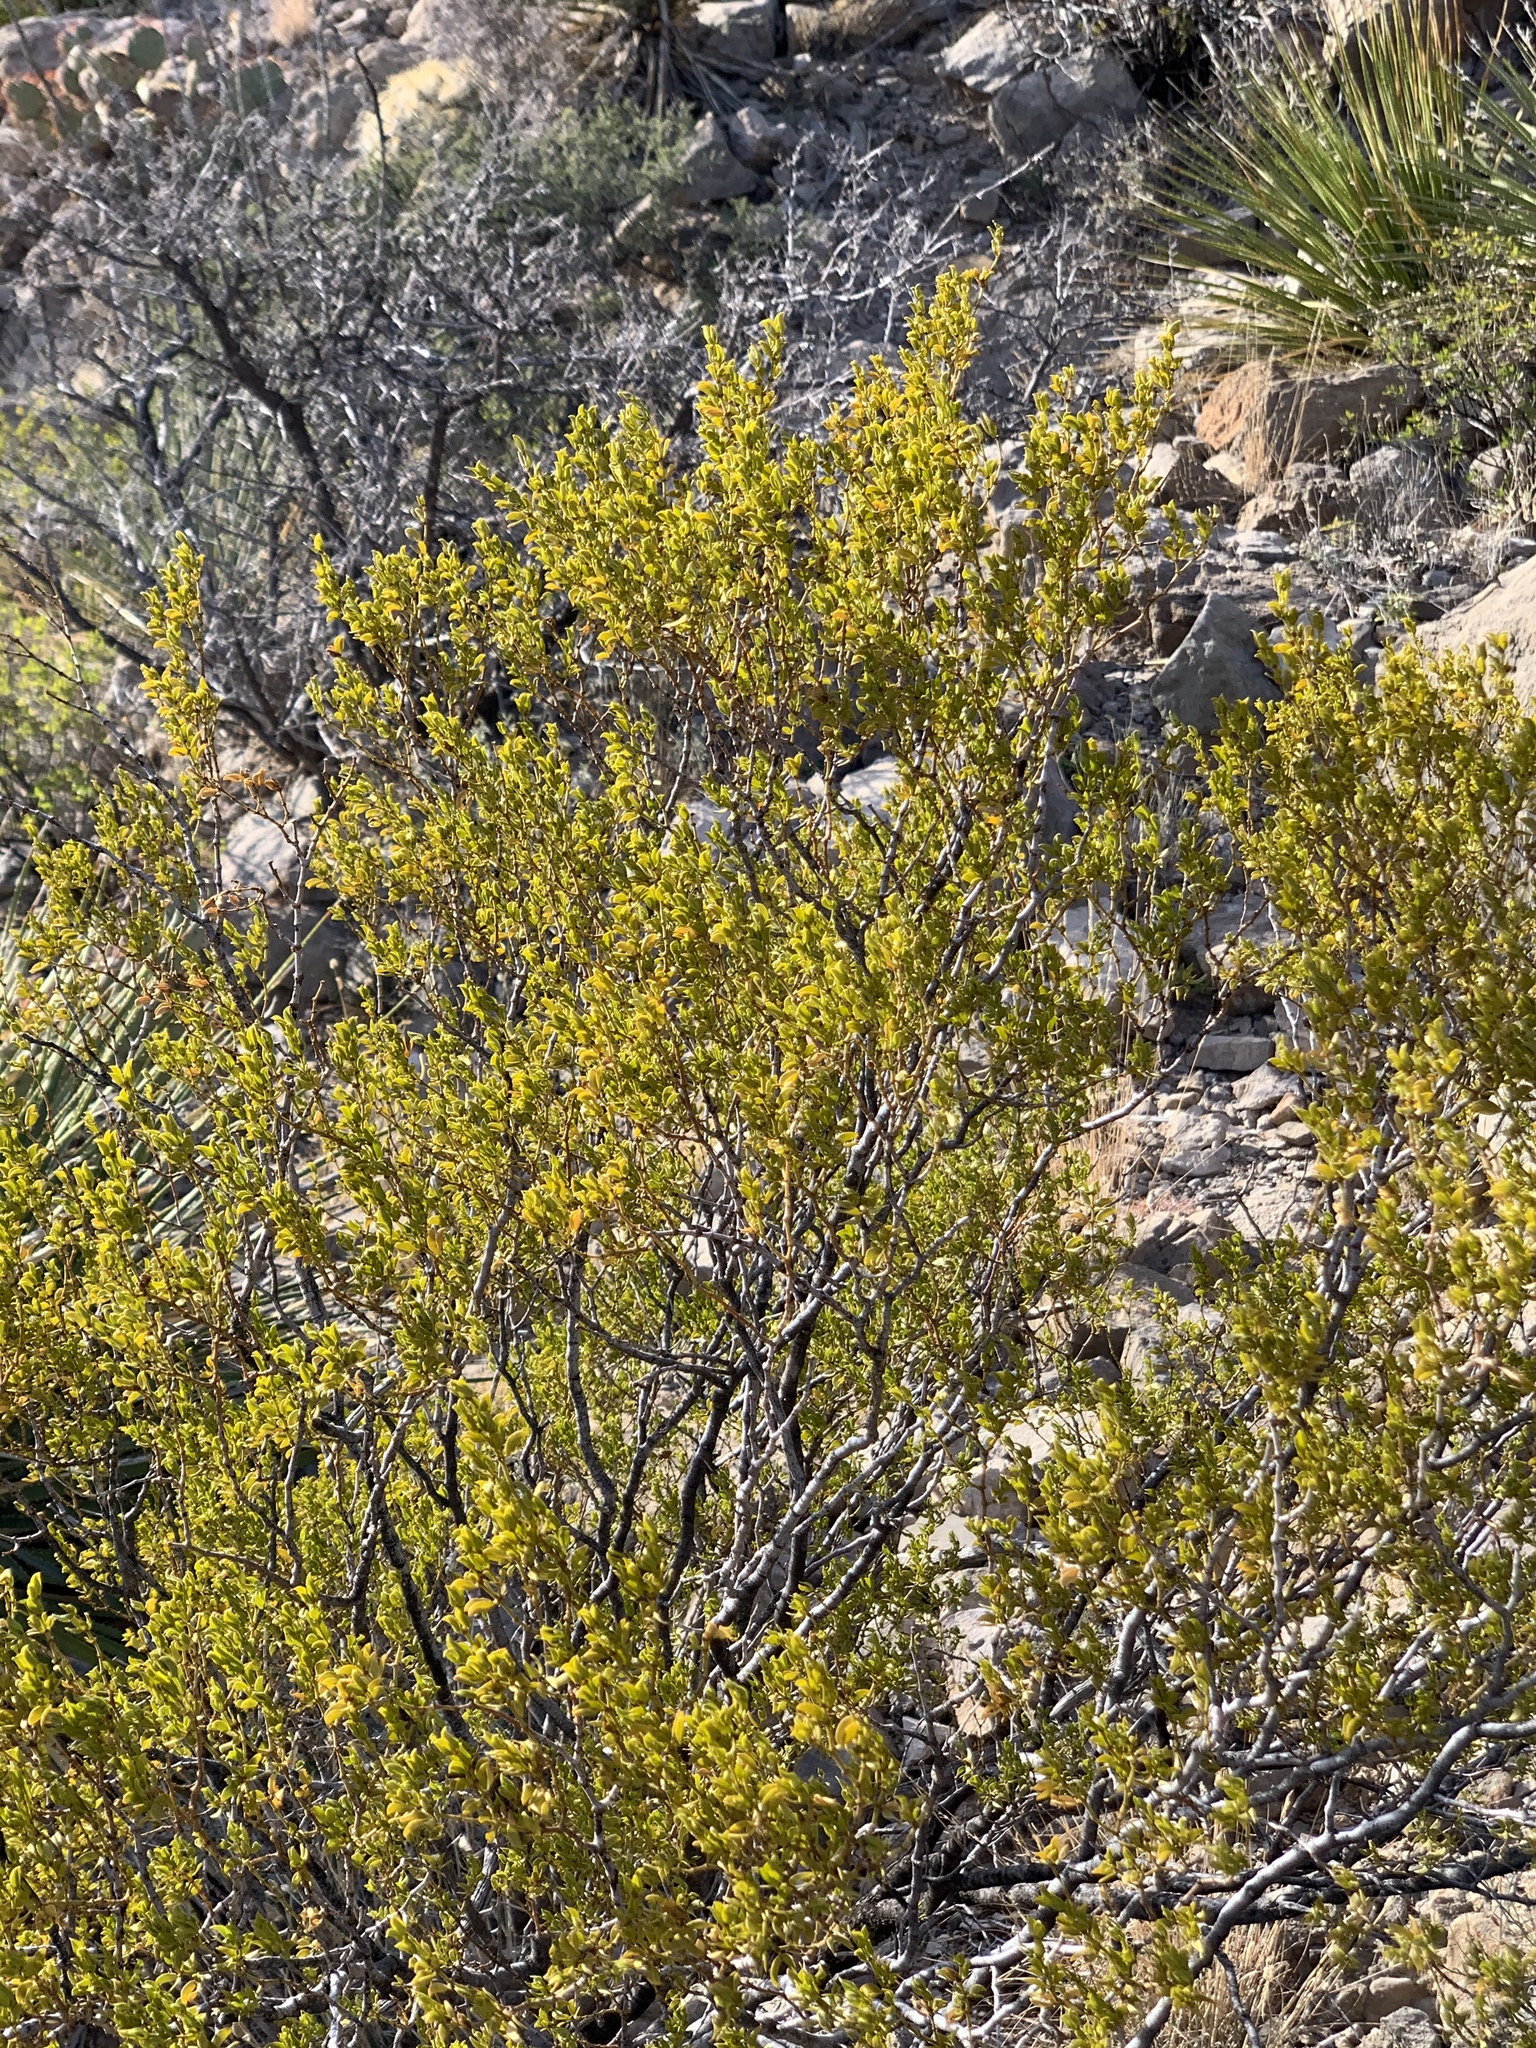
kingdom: Plantae
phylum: Tracheophyta
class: Magnoliopsida
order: Zygophyllales
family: Zygophyllaceae
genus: Larrea
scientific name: Larrea tridentata
